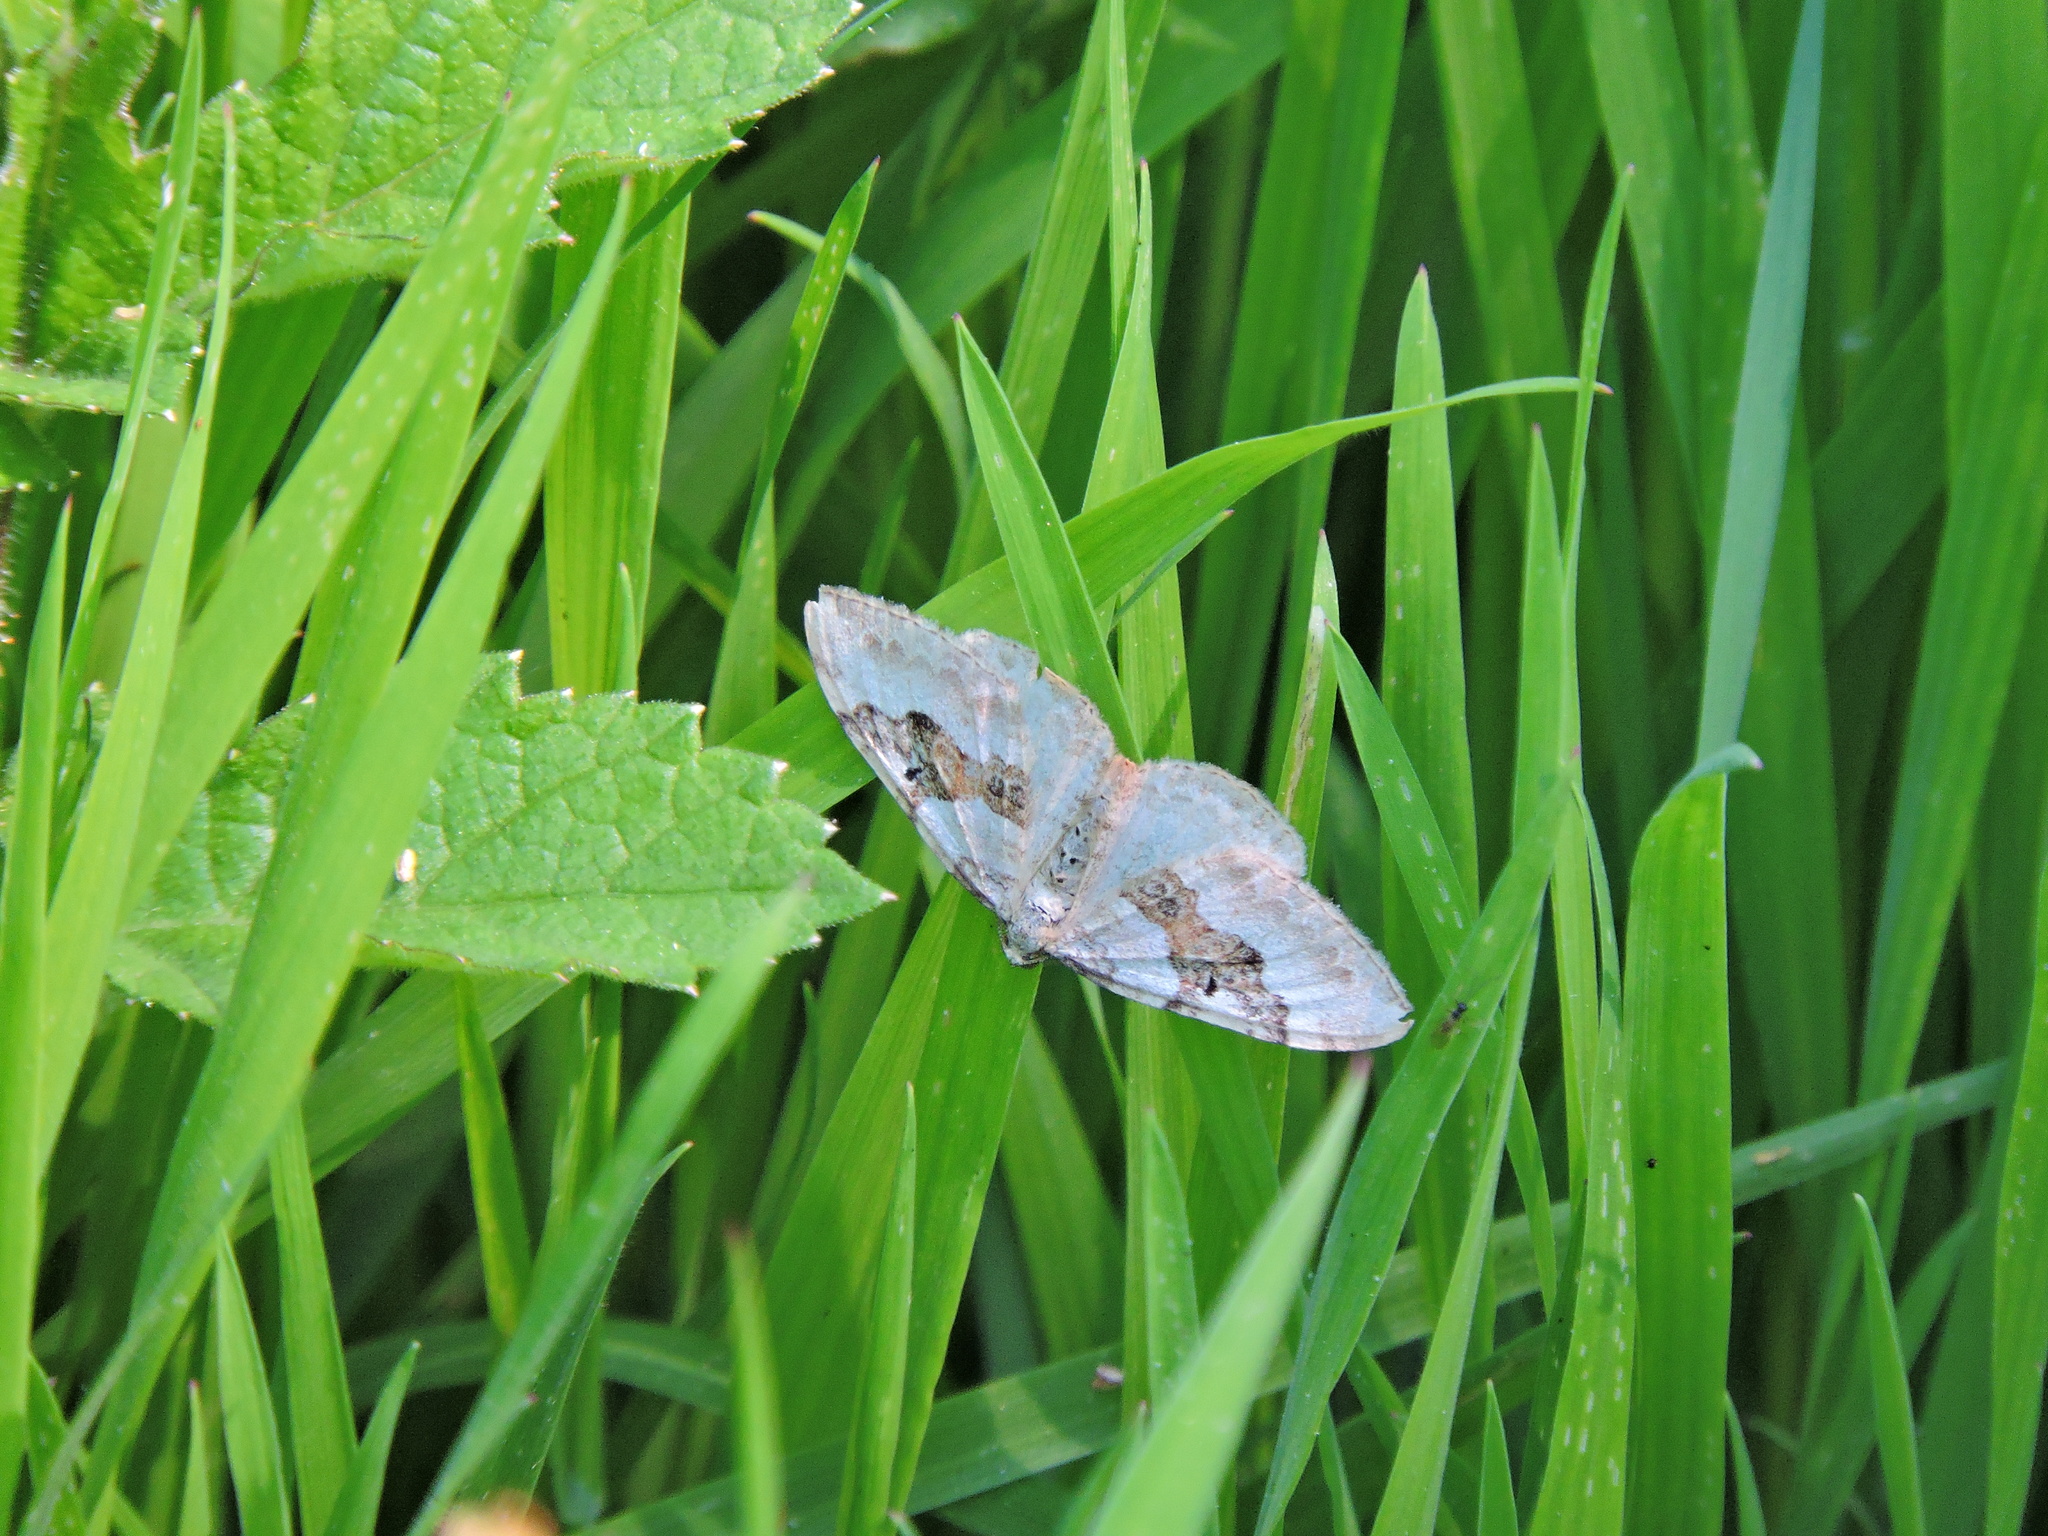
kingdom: Animalia
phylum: Arthropoda
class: Insecta
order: Lepidoptera
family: Geometridae
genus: Xanthorhoe
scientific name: Xanthorhoe montanata
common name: Silver-ground carpet
